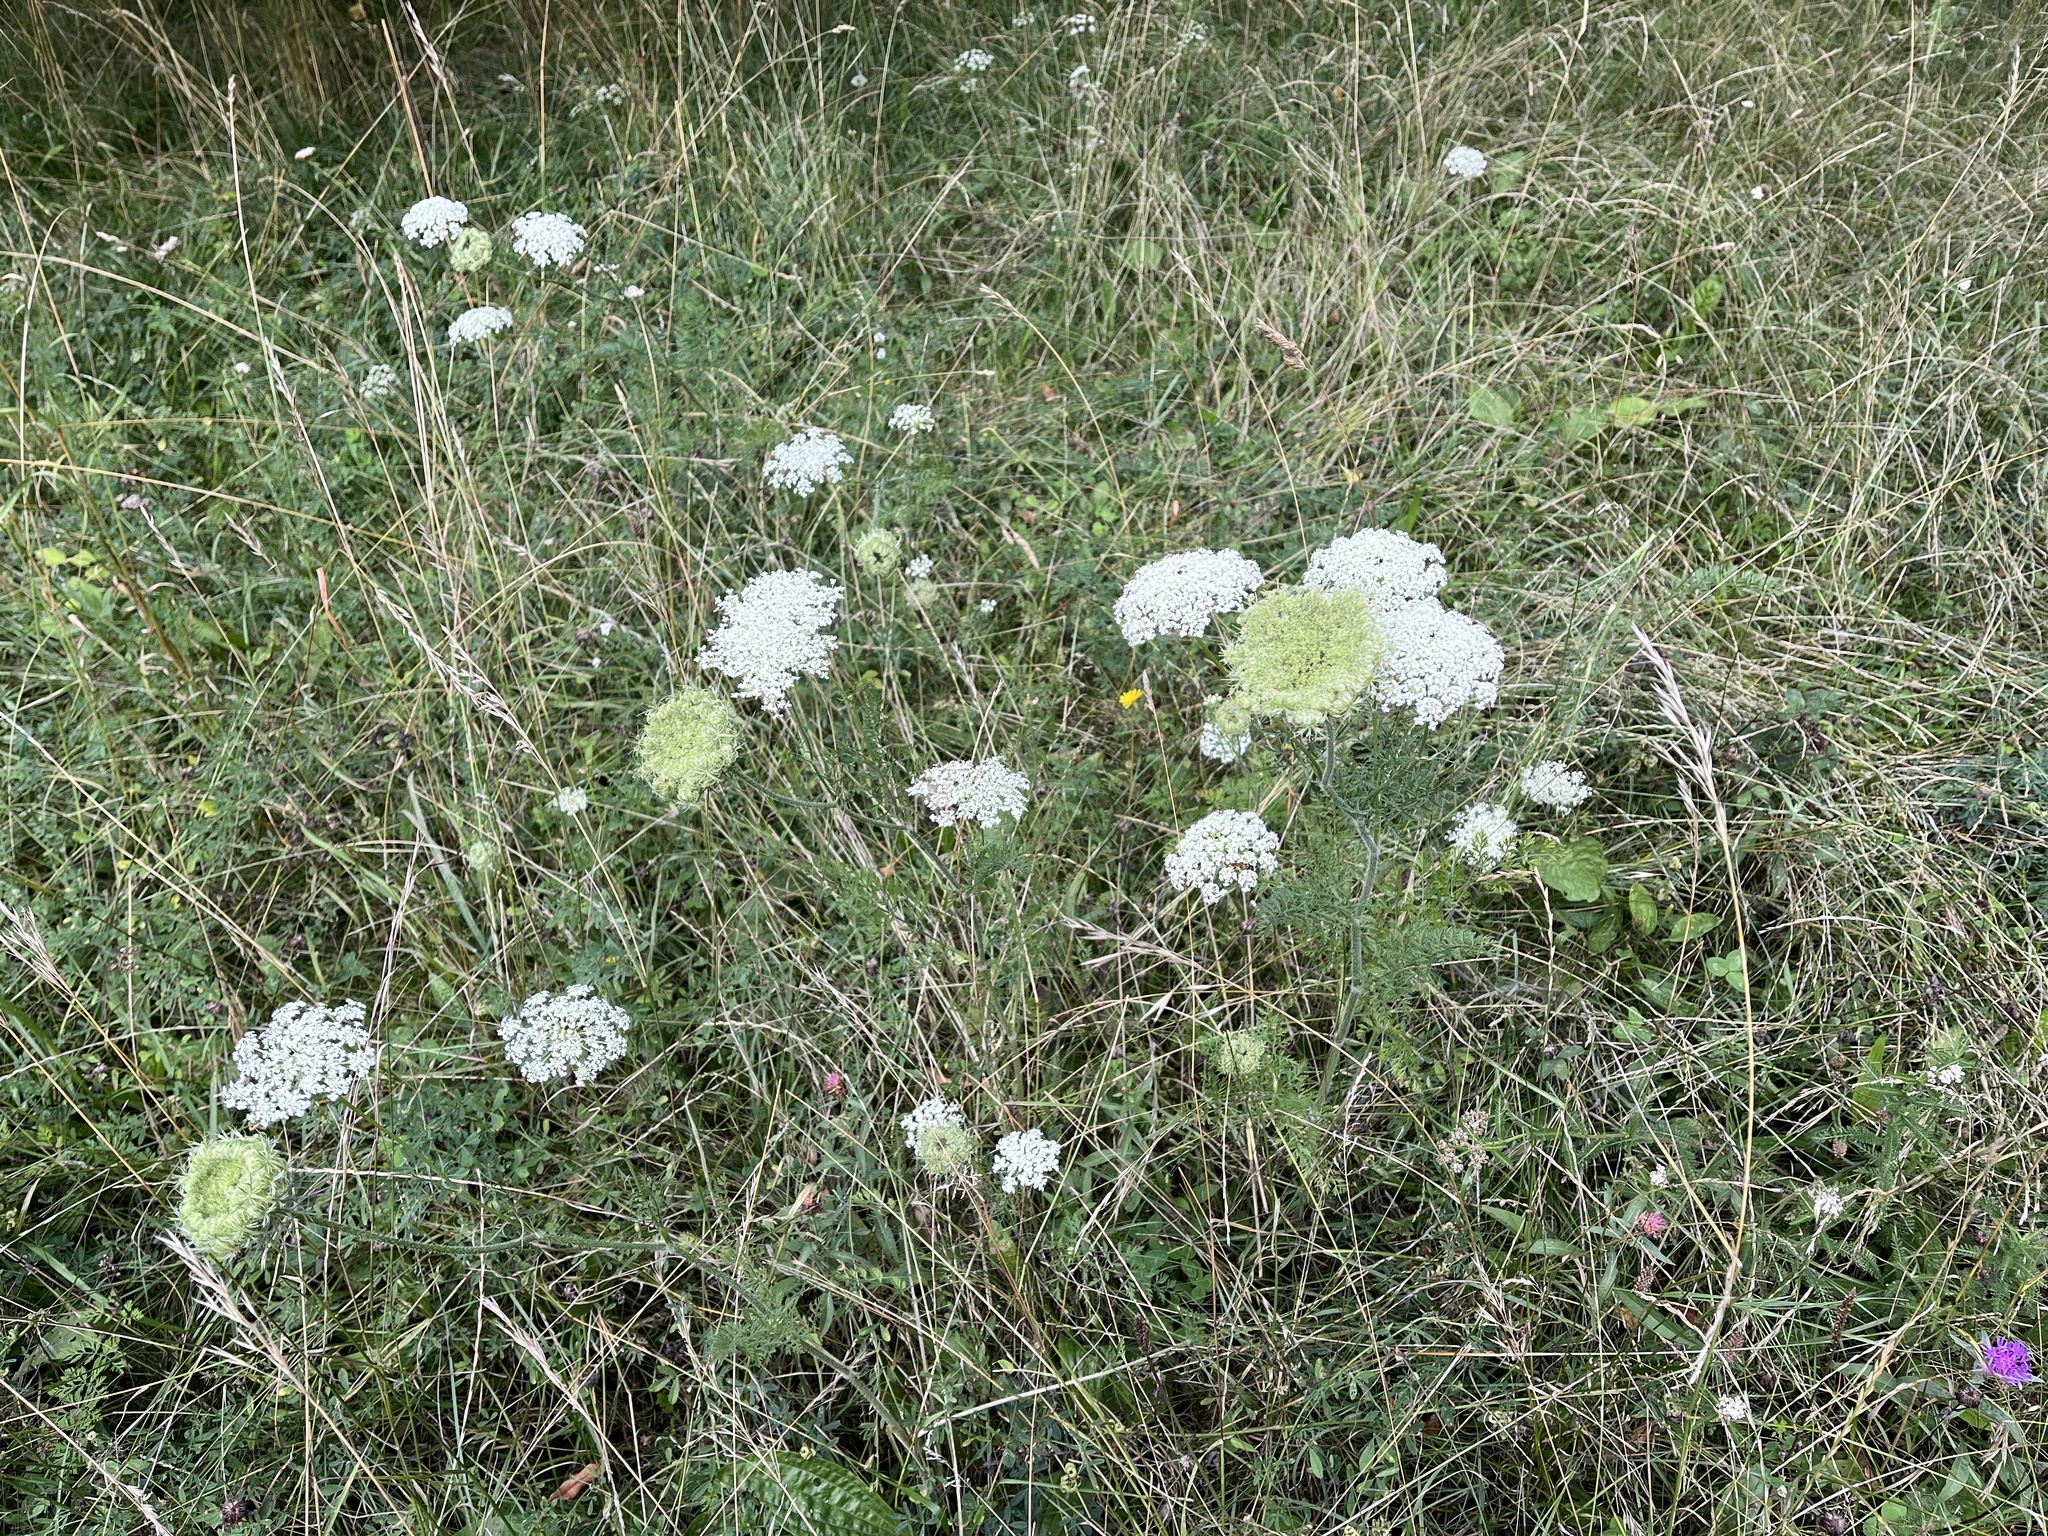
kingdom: Plantae
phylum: Tracheophyta
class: Magnoliopsida
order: Apiales
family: Apiaceae
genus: Daucus
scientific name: Daucus carota
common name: Wild carrot
